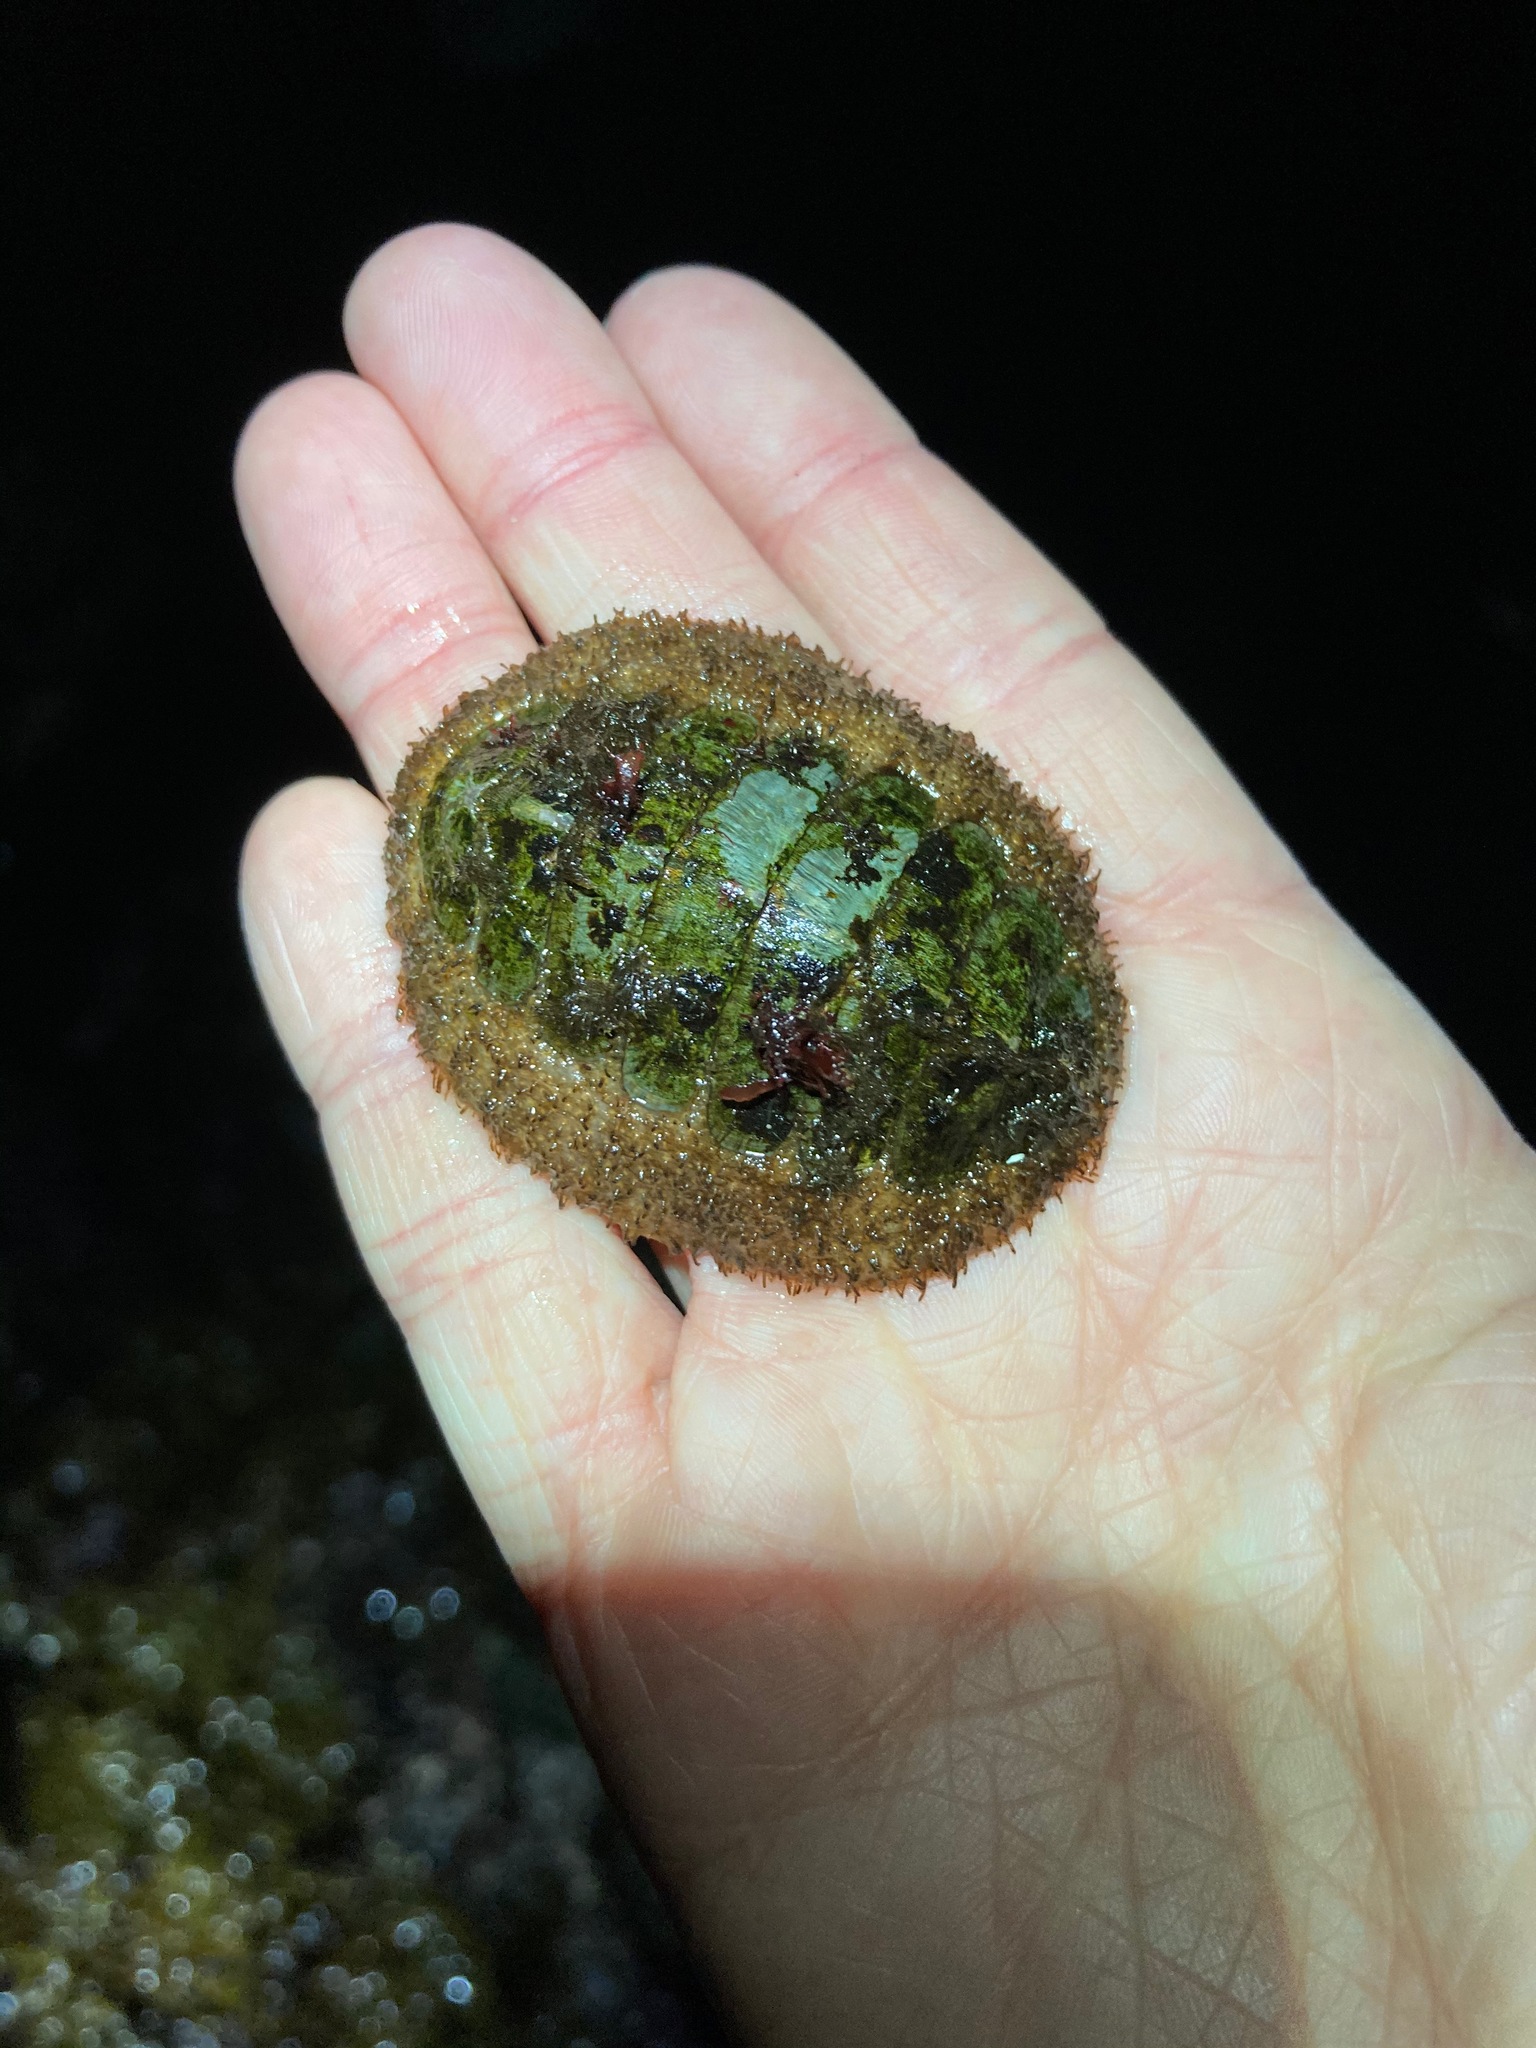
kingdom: Animalia
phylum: Mollusca
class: Polyplacophora
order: Chitonida
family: Mopaliidae
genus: Mopalia
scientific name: Mopalia lignosa
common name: Woody chiton
